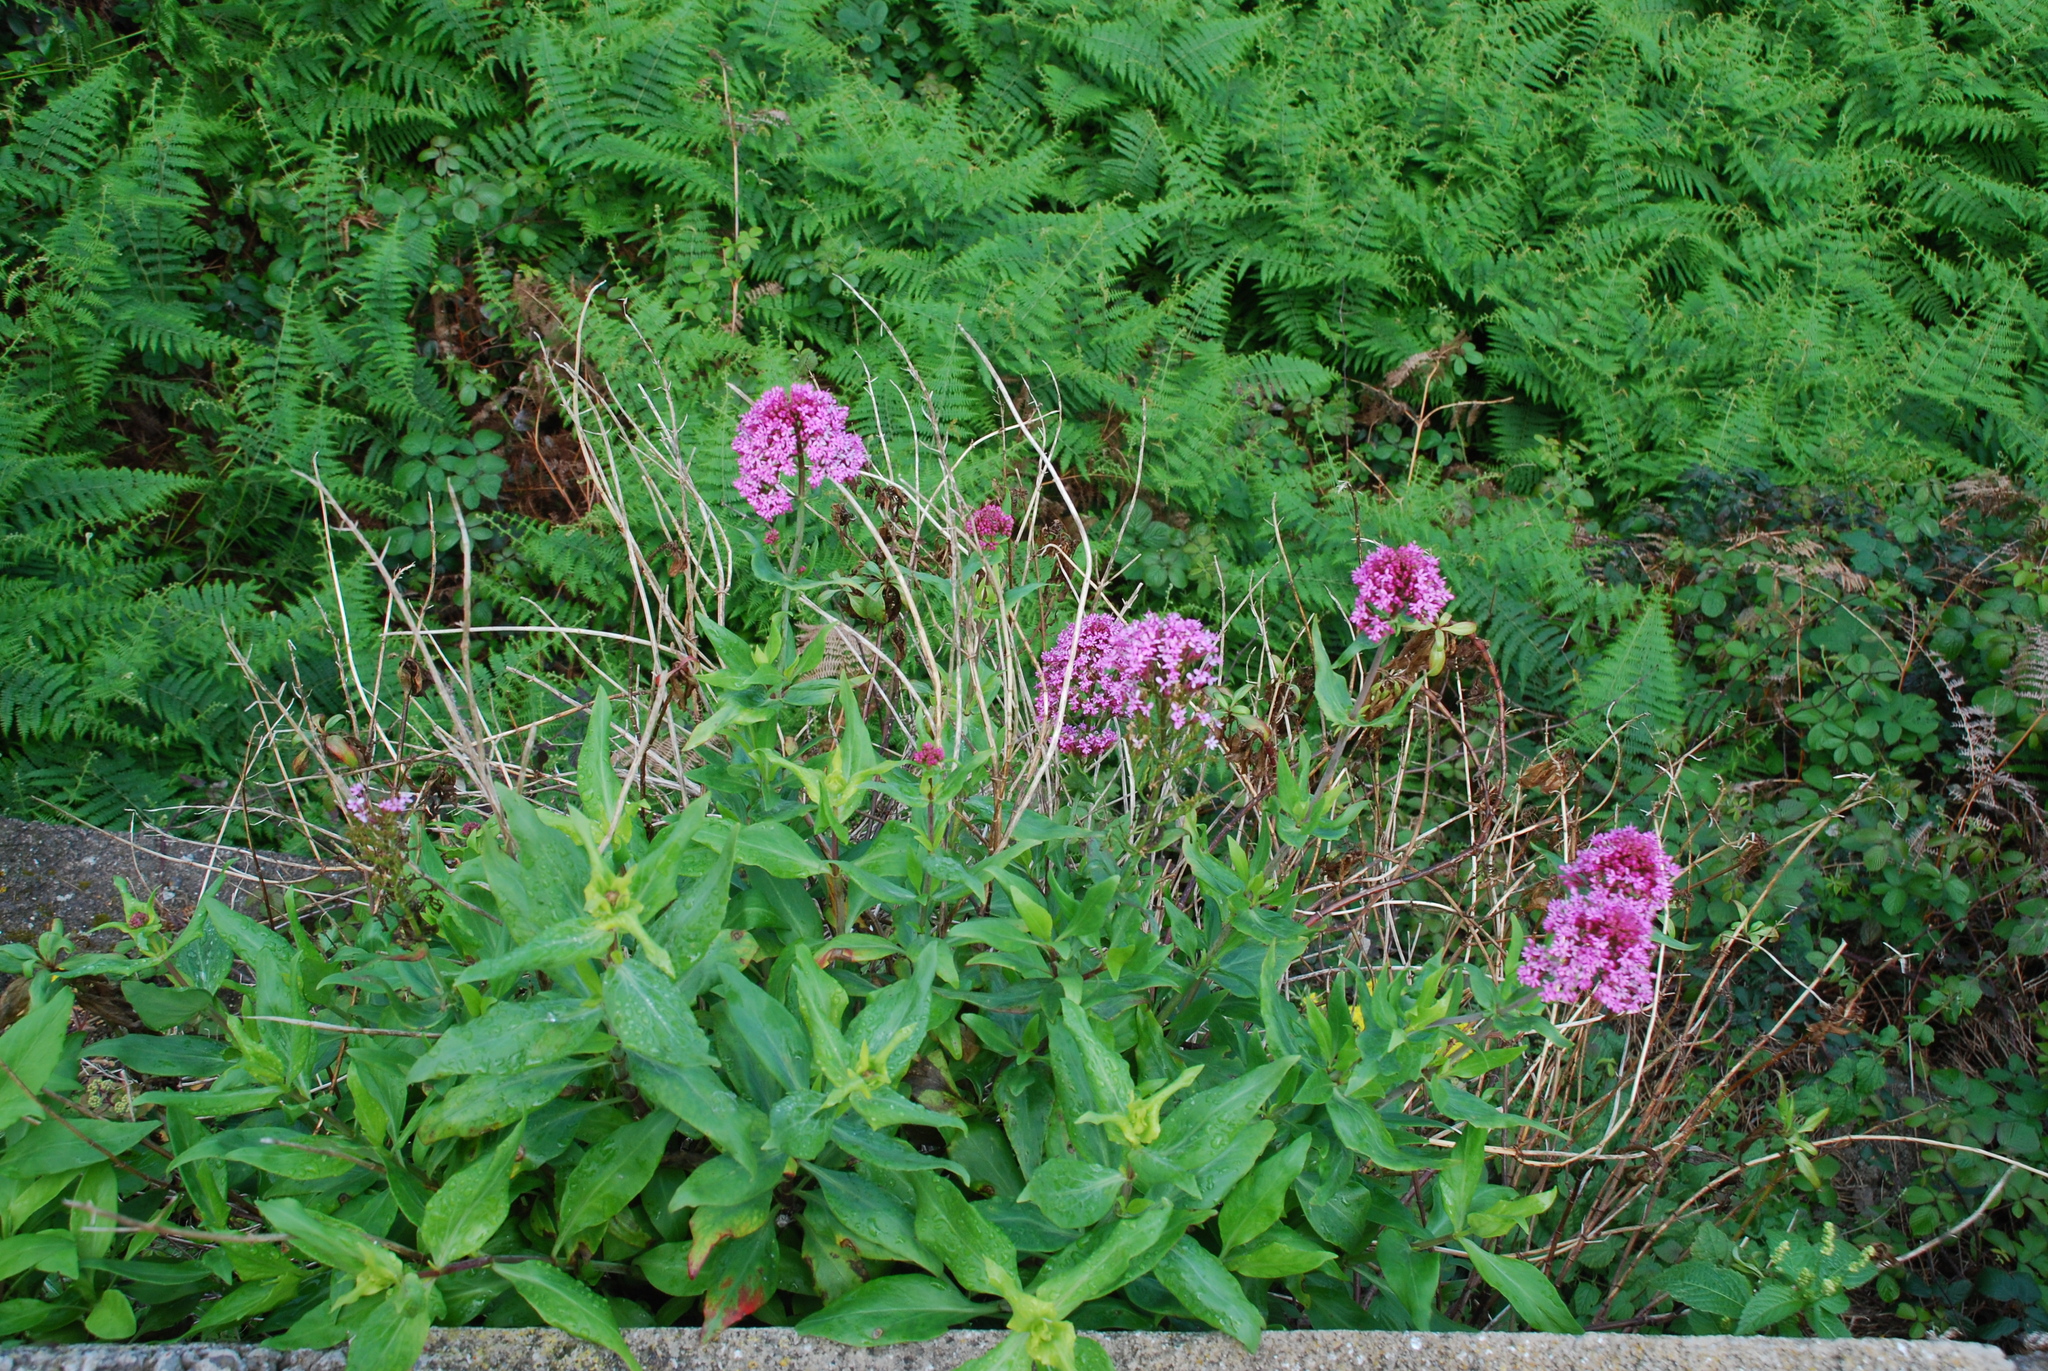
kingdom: Plantae
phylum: Tracheophyta
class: Magnoliopsida
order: Dipsacales
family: Caprifoliaceae
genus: Centranthus
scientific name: Centranthus ruber
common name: Red valerian
